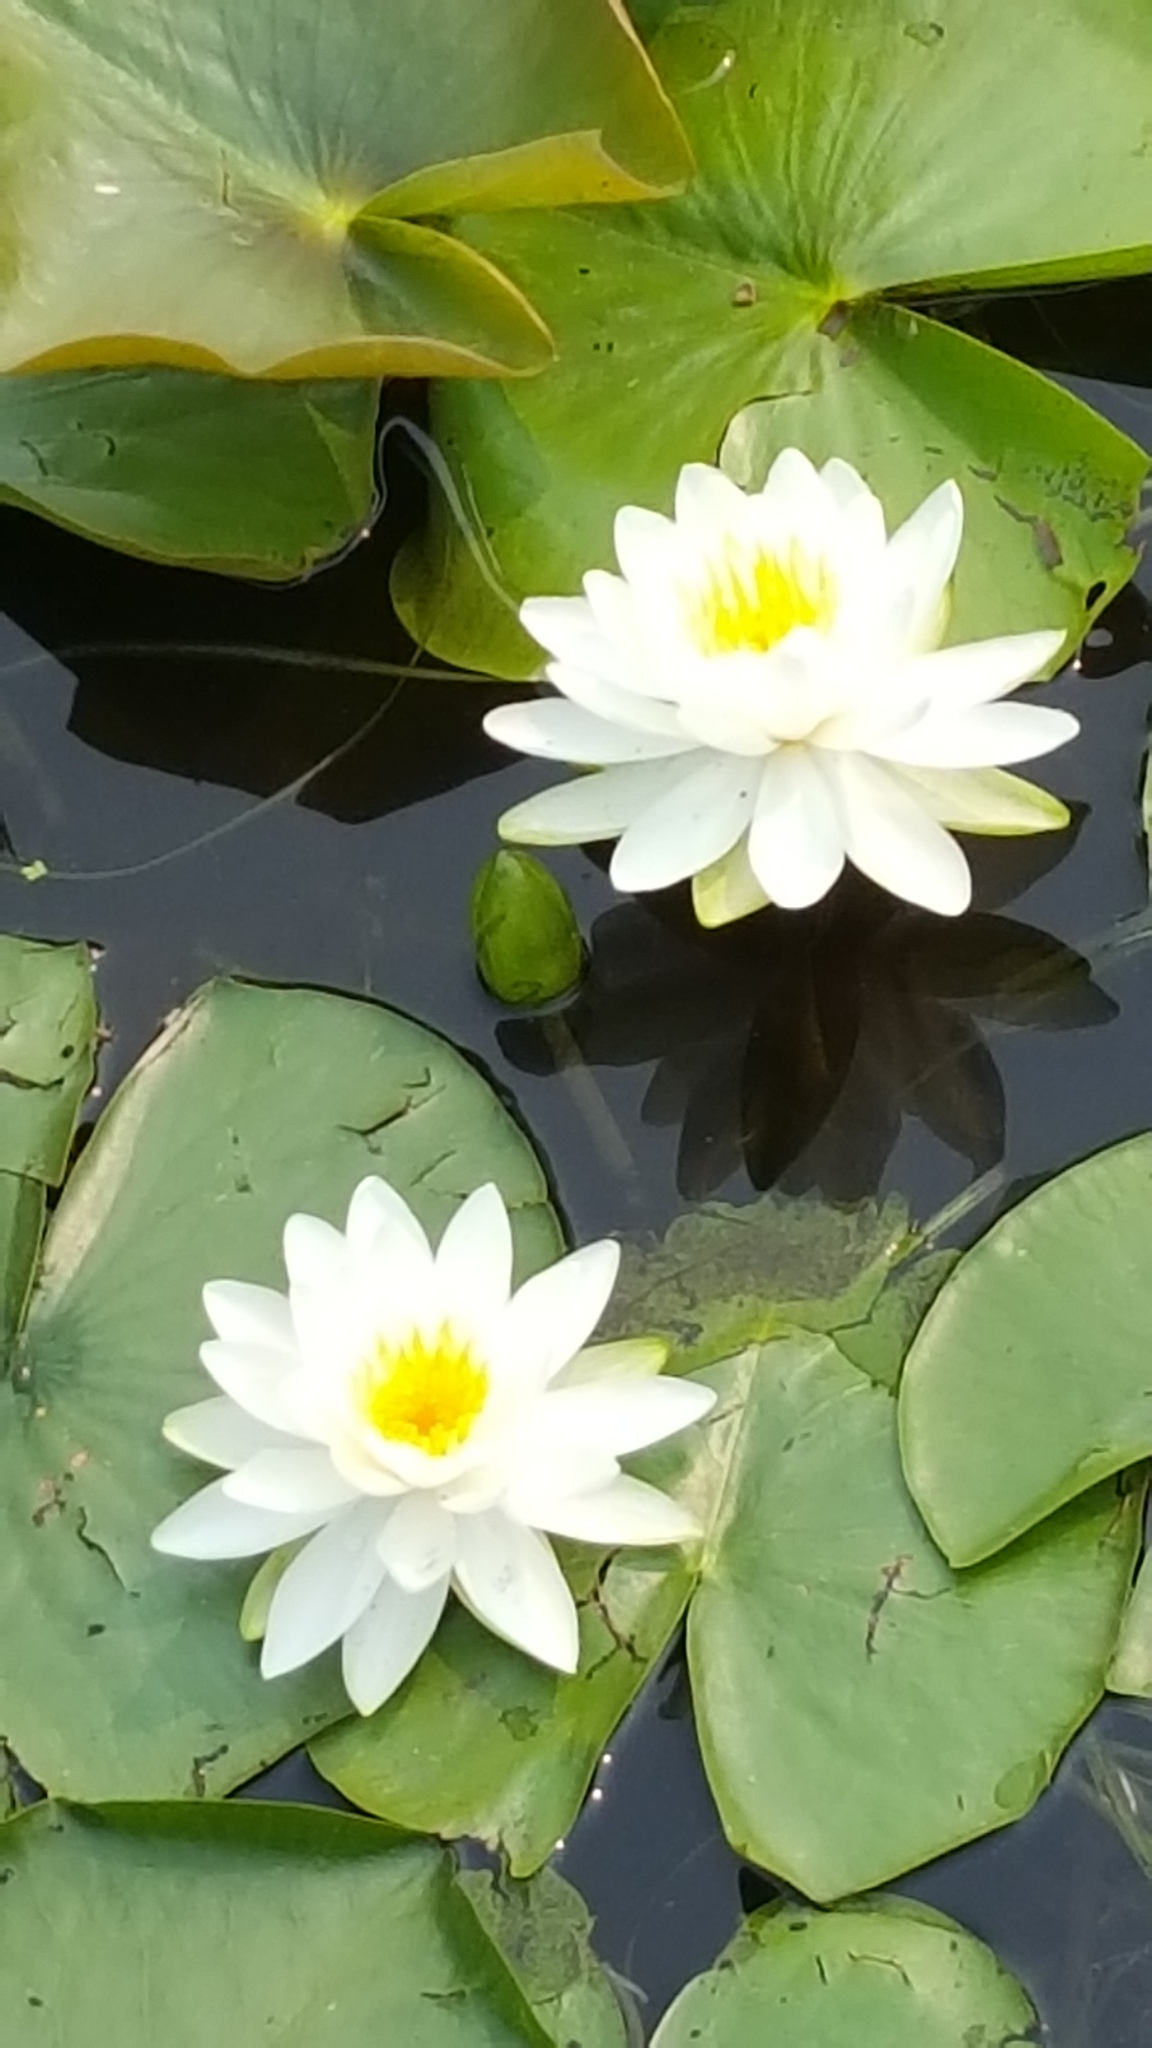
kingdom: Plantae
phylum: Tracheophyta
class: Magnoliopsida
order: Nymphaeales
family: Nymphaeaceae
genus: Nymphaea
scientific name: Nymphaea odorata
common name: Fragrant water-lily
